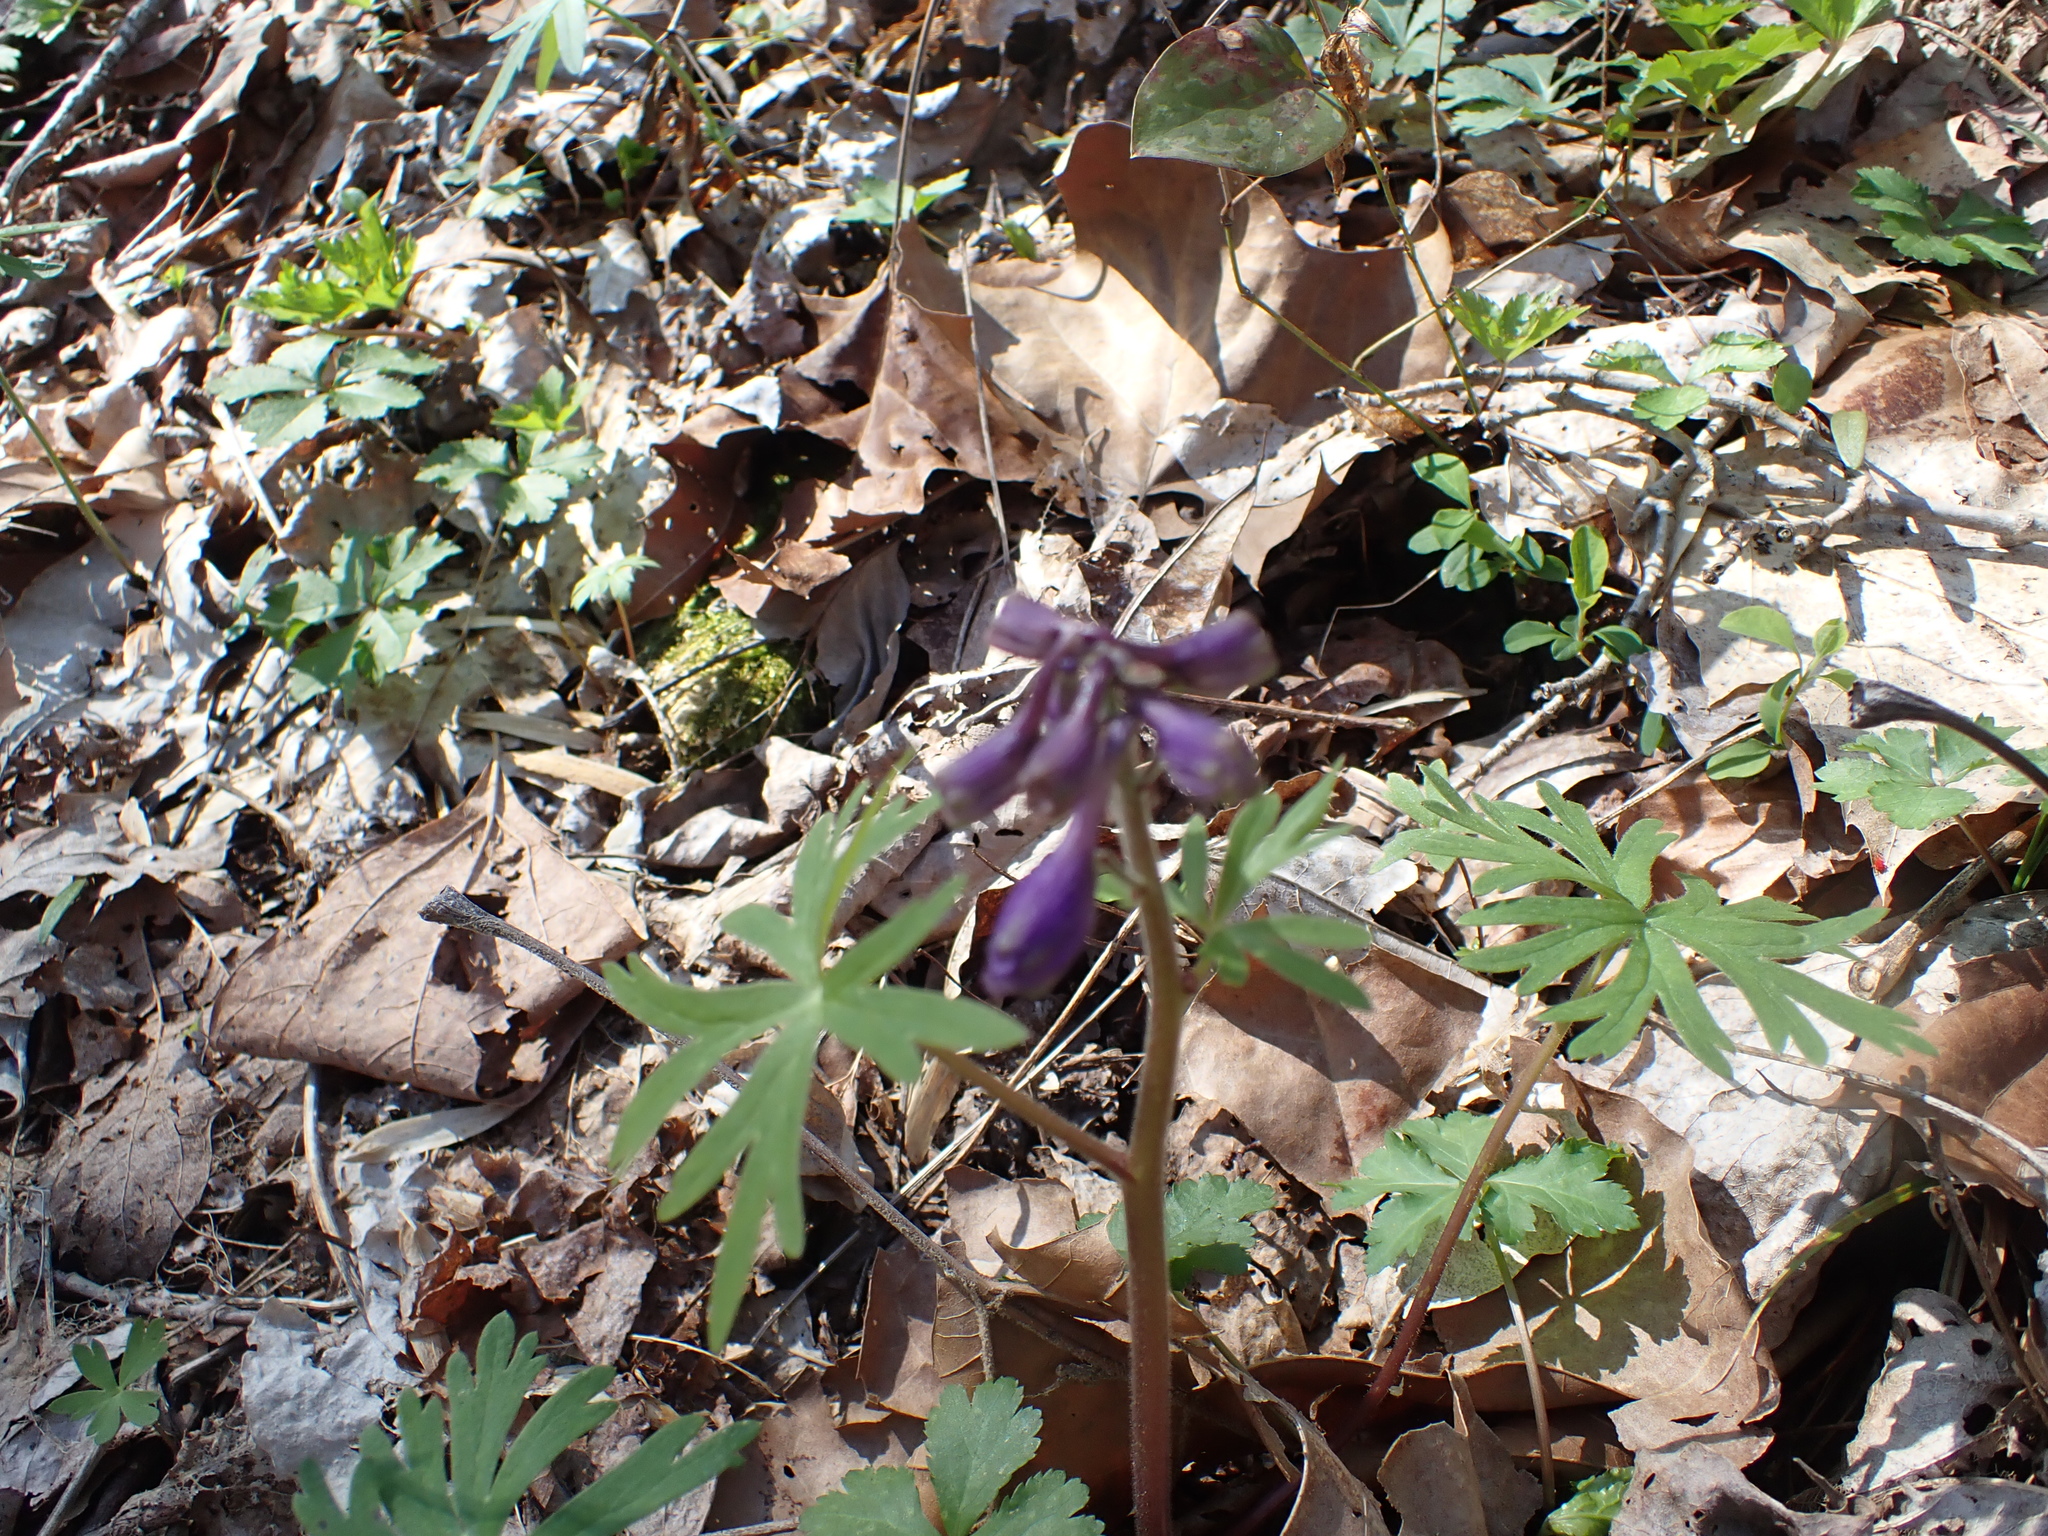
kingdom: Plantae
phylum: Tracheophyta
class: Magnoliopsida
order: Ranunculales
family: Ranunculaceae
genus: Delphinium
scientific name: Delphinium tricorne
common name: Dwarf larkspur
